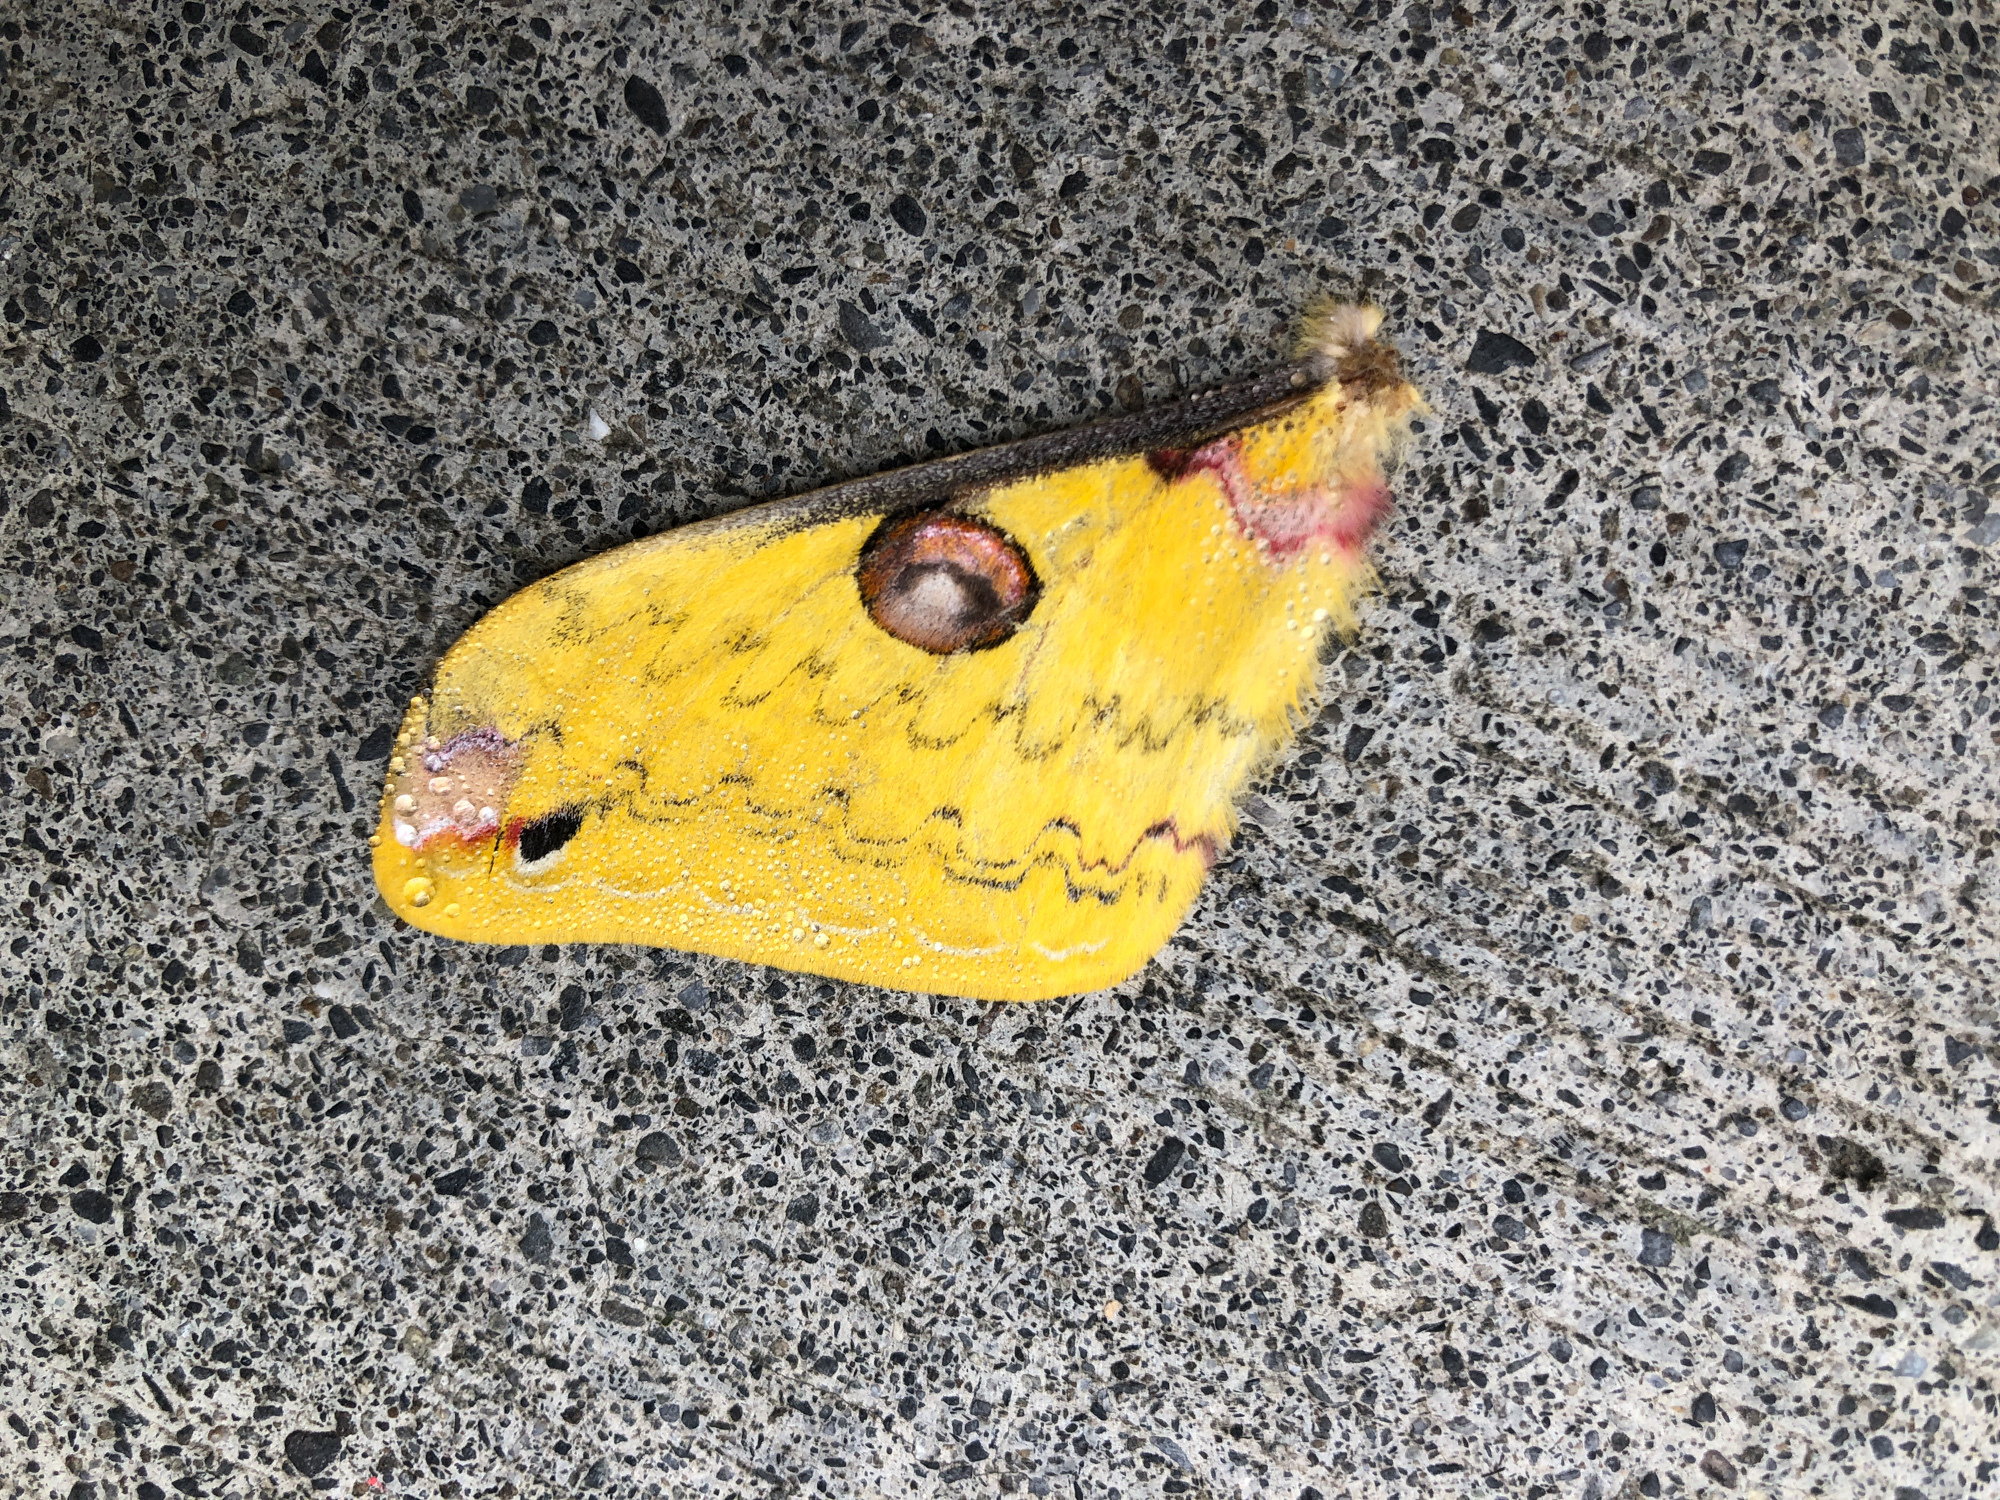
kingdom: Animalia
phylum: Arthropoda
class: Insecta
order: Lepidoptera
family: Saturniidae
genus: Loepa
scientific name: Loepa formosensis
